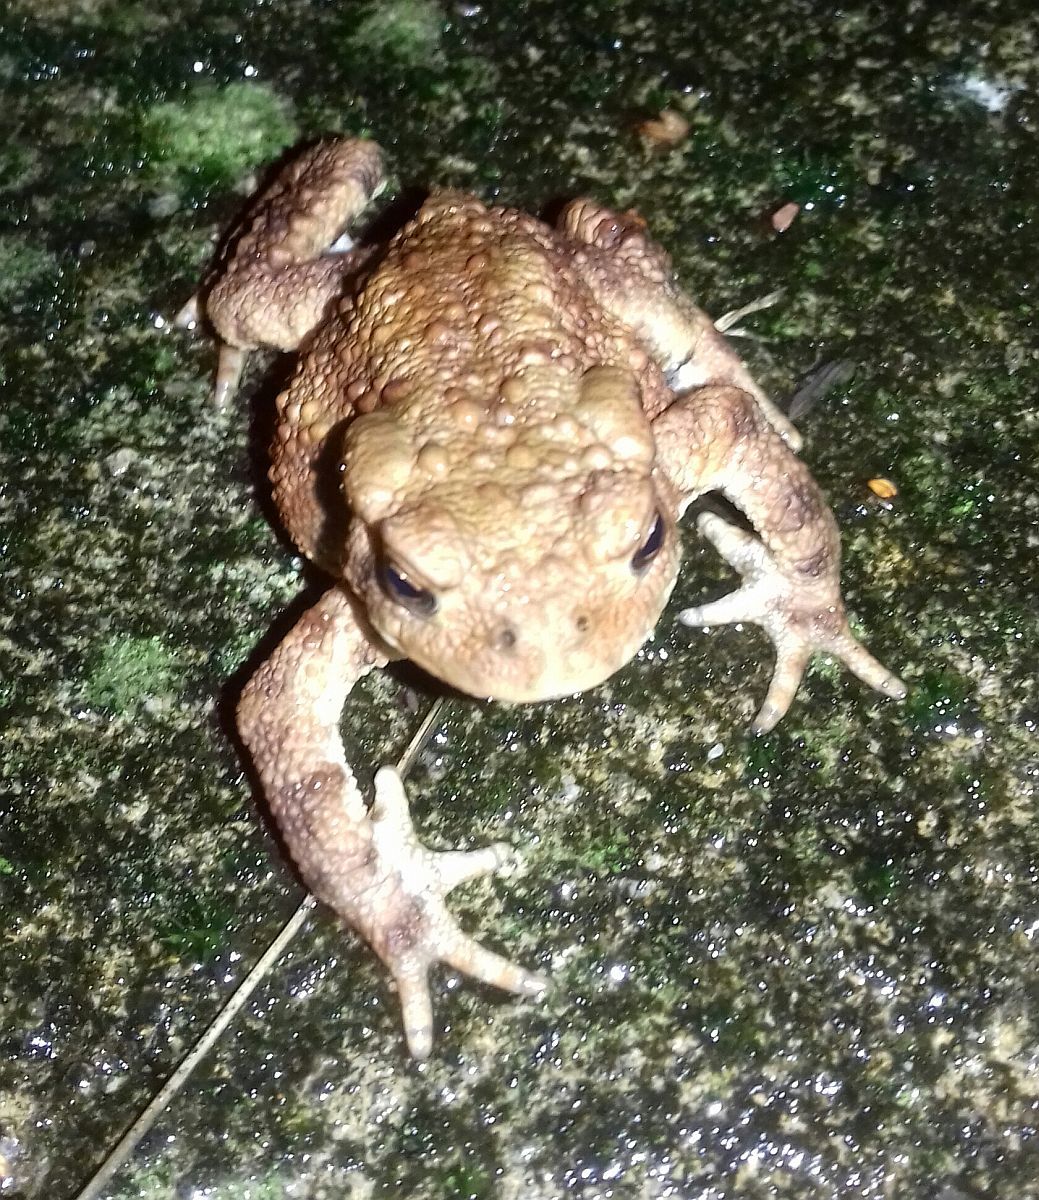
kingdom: Animalia
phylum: Chordata
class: Amphibia
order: Anura
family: Bufonidae
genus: Bufo
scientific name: Bufo bufo
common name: Common toad
